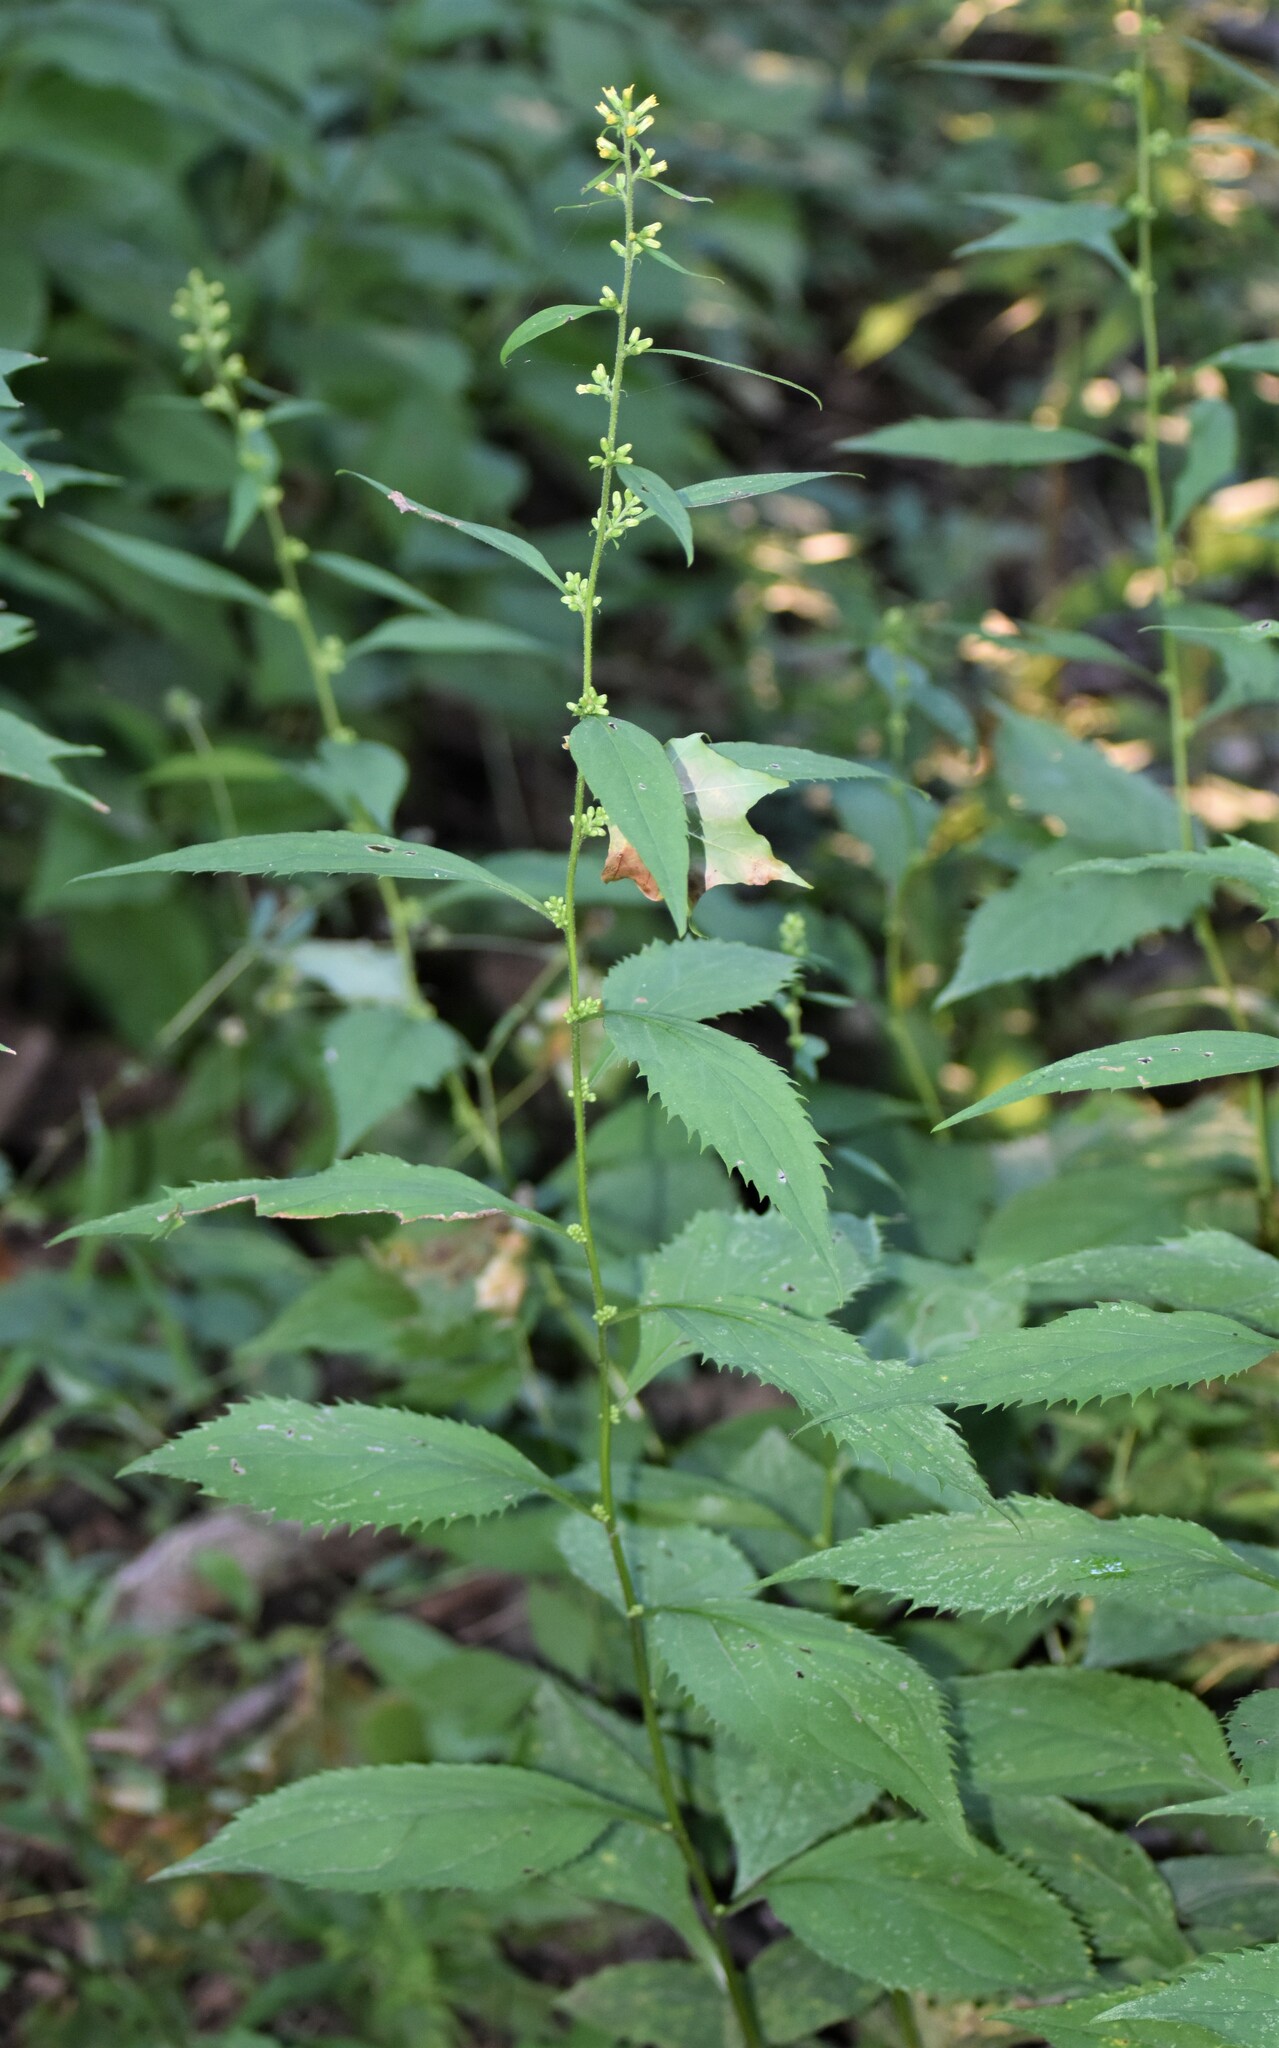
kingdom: Plantae
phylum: Tracheophyta
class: Magnoliopsida
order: Asterales
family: Asteraceae
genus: Solidago
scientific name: Solidago flexicaulis
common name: Zig-zag goldenrod
